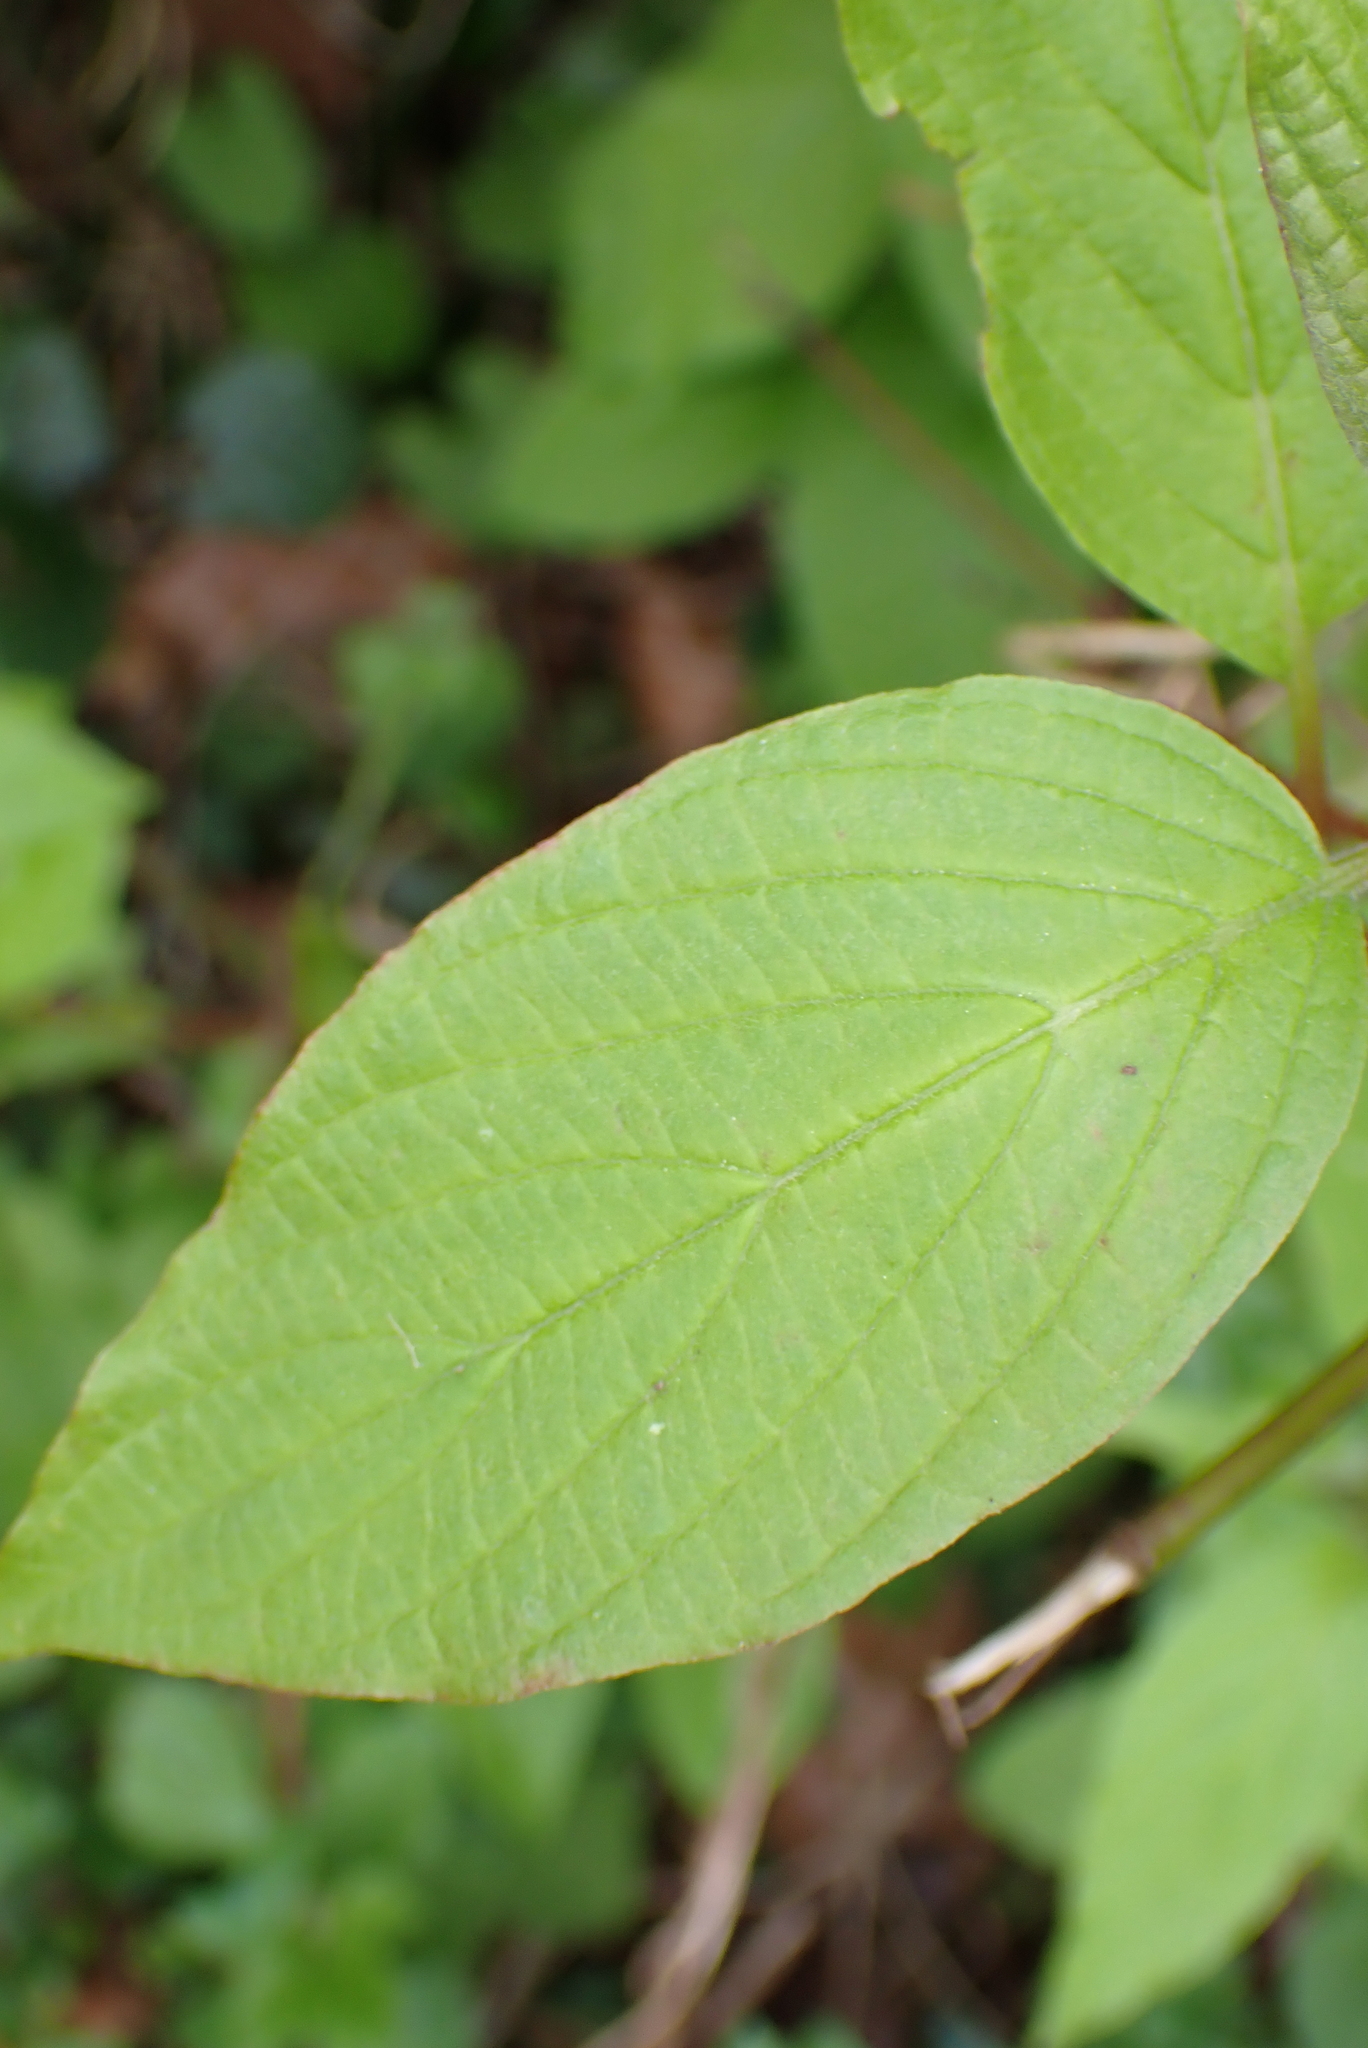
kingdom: Plantae
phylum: Tracheophyta
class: Magnoliopsida
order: Cornales
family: Cornaceae
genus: Cornus
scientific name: Cornus sericea
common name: Red-osier dogwood
